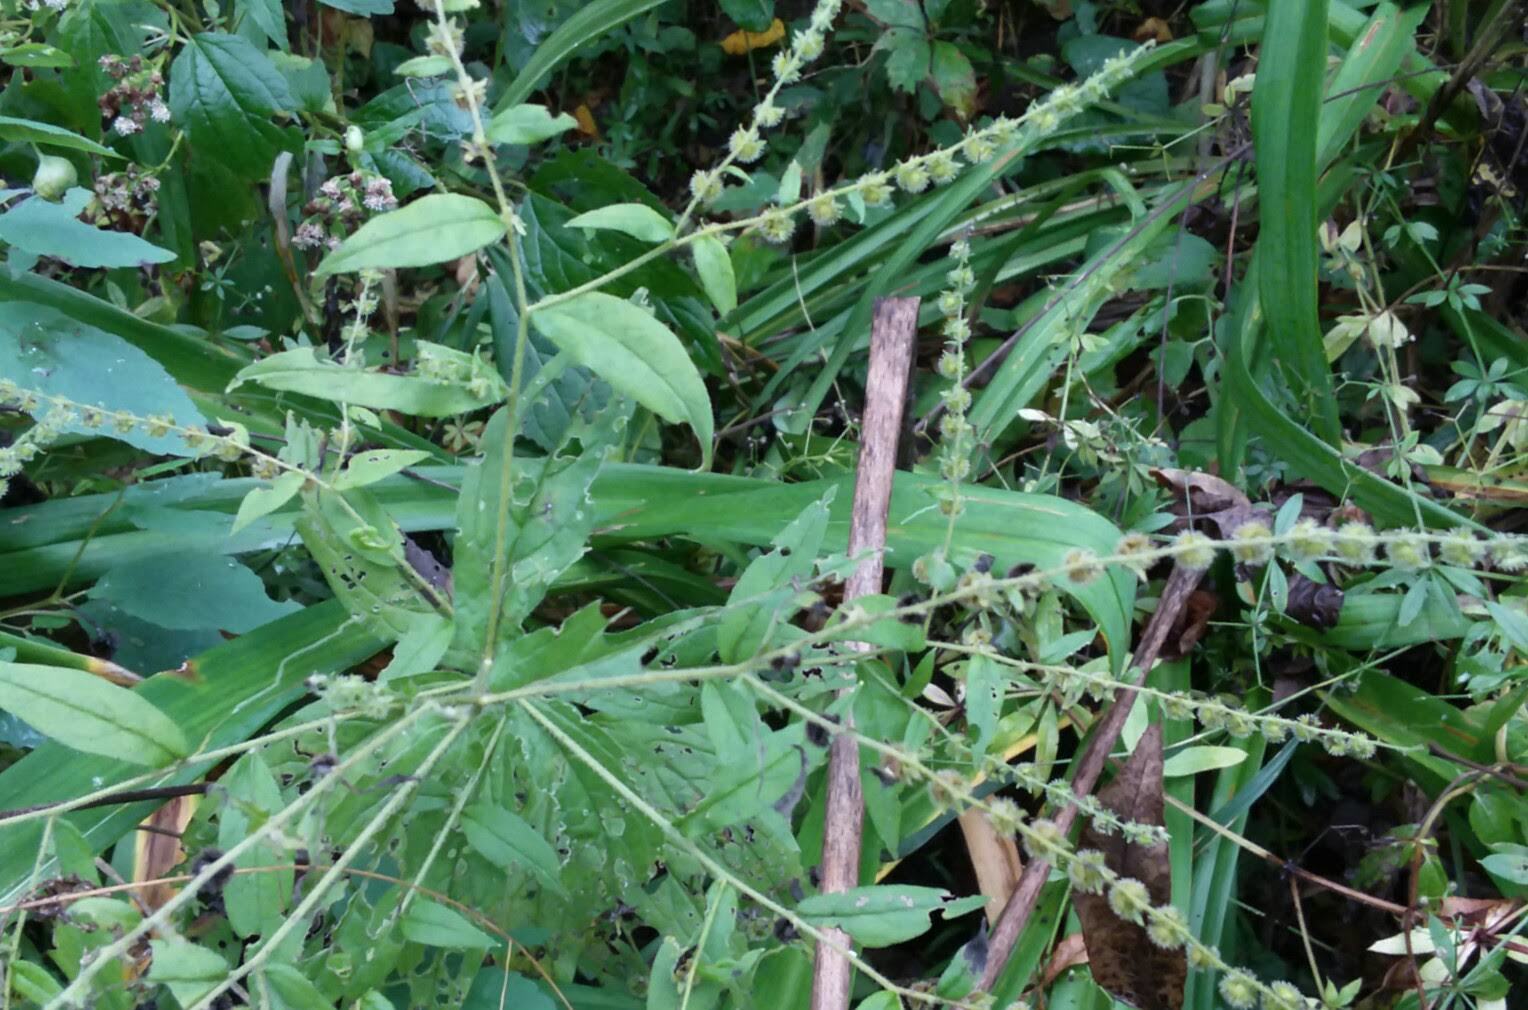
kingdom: Plantae
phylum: Tracheophyta
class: Magnoliopsida
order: Boraginales
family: Boraginaceae
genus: Hackelia
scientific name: Hackelia virginiana
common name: Beggar's-lice
